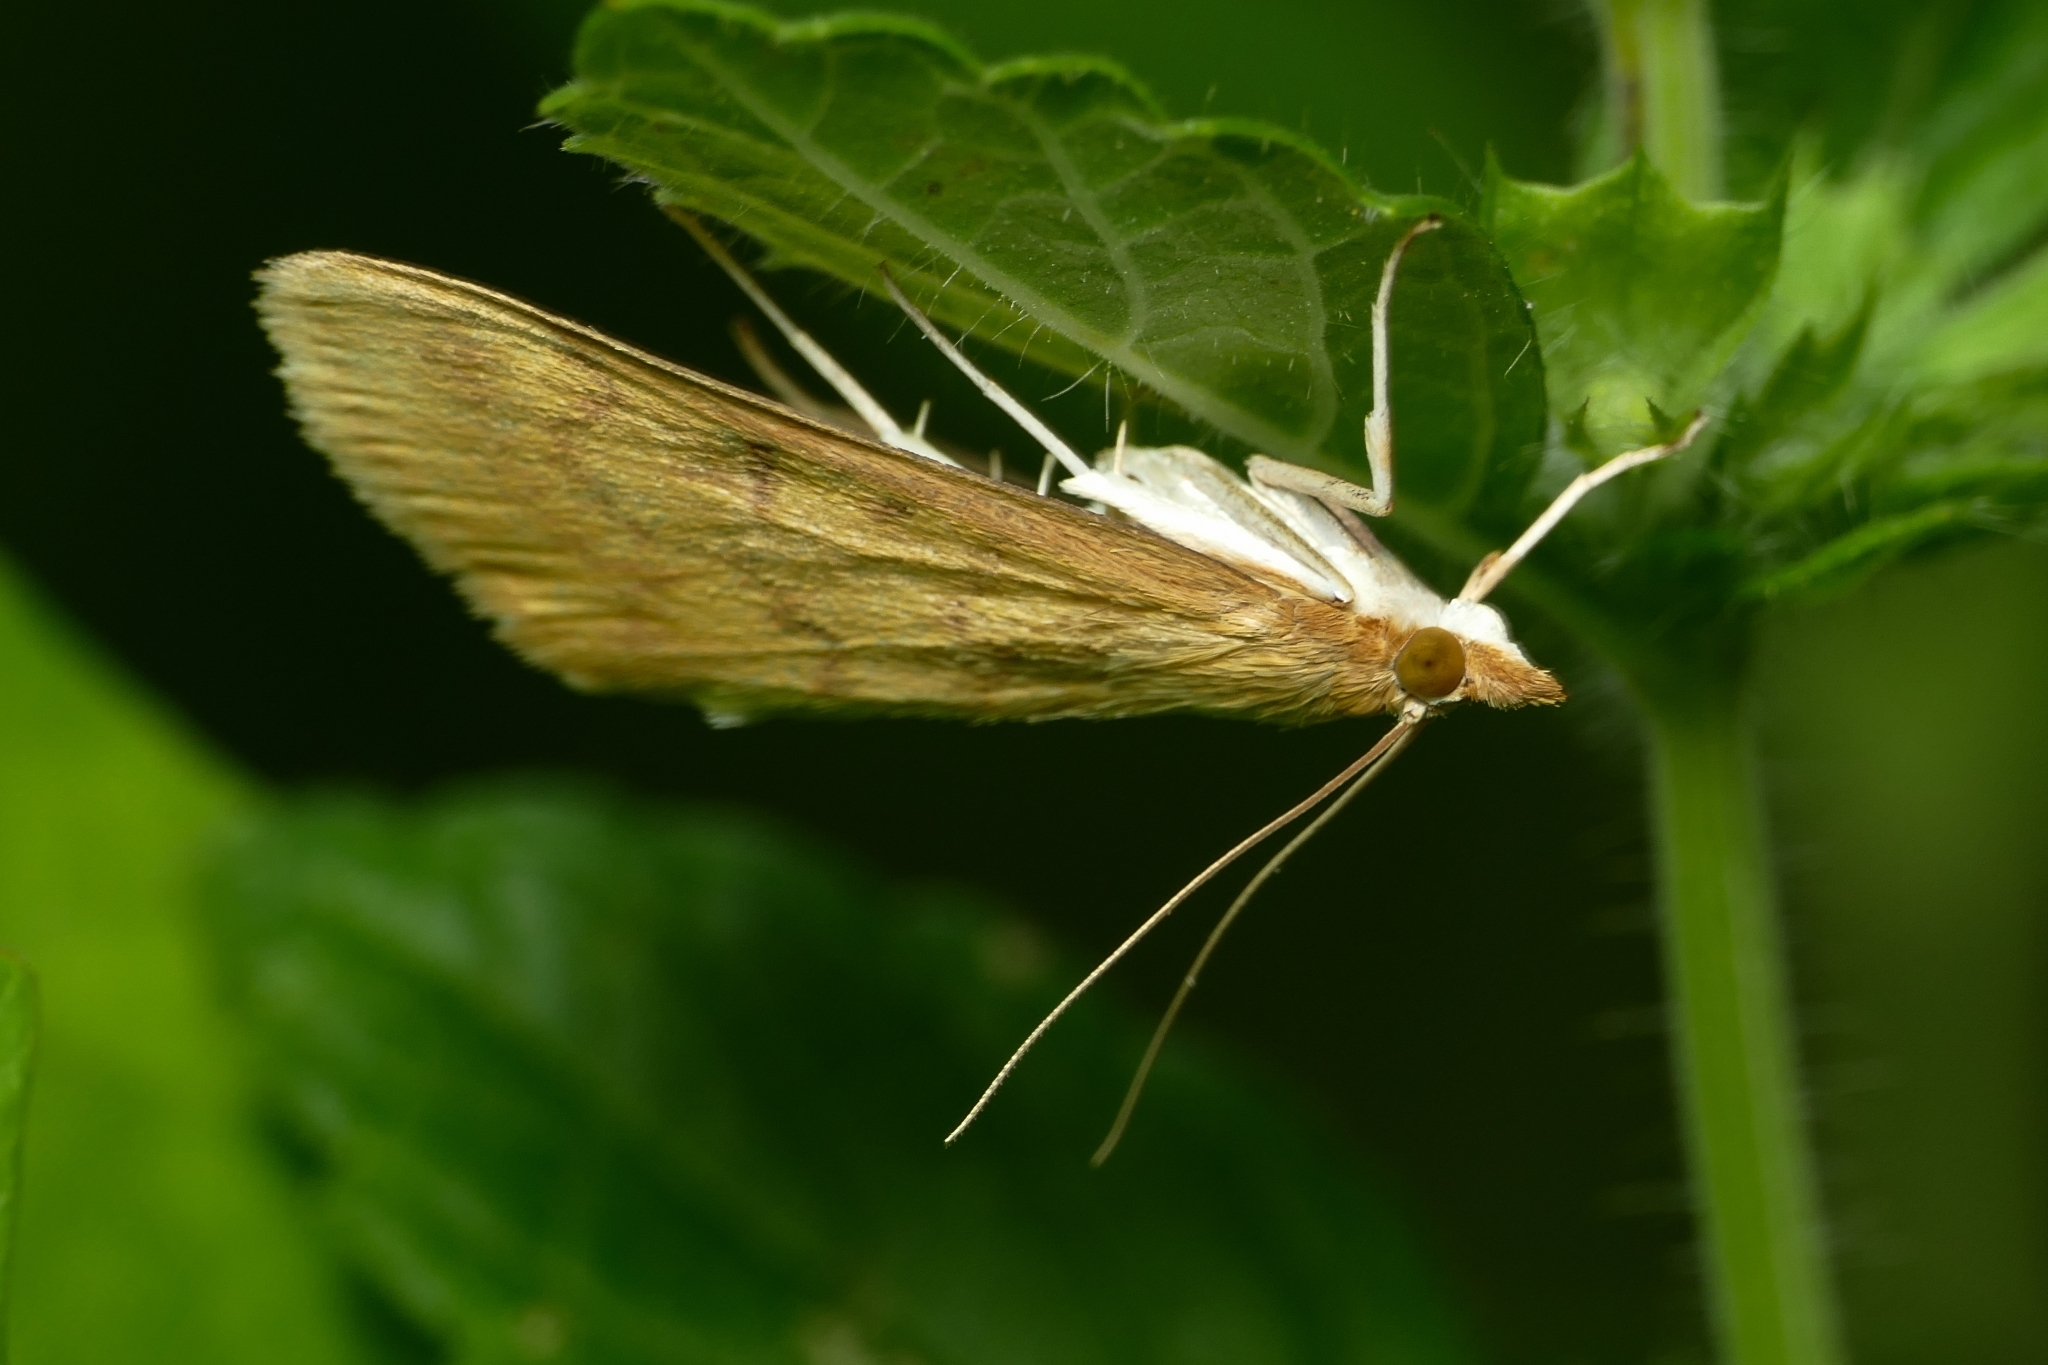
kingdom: Animalia
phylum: Arthropoda
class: Insecta
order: Lepidoptera
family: Crambidae
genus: Ostrinia
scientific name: Ostrinia nubilalis
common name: European corn borer
